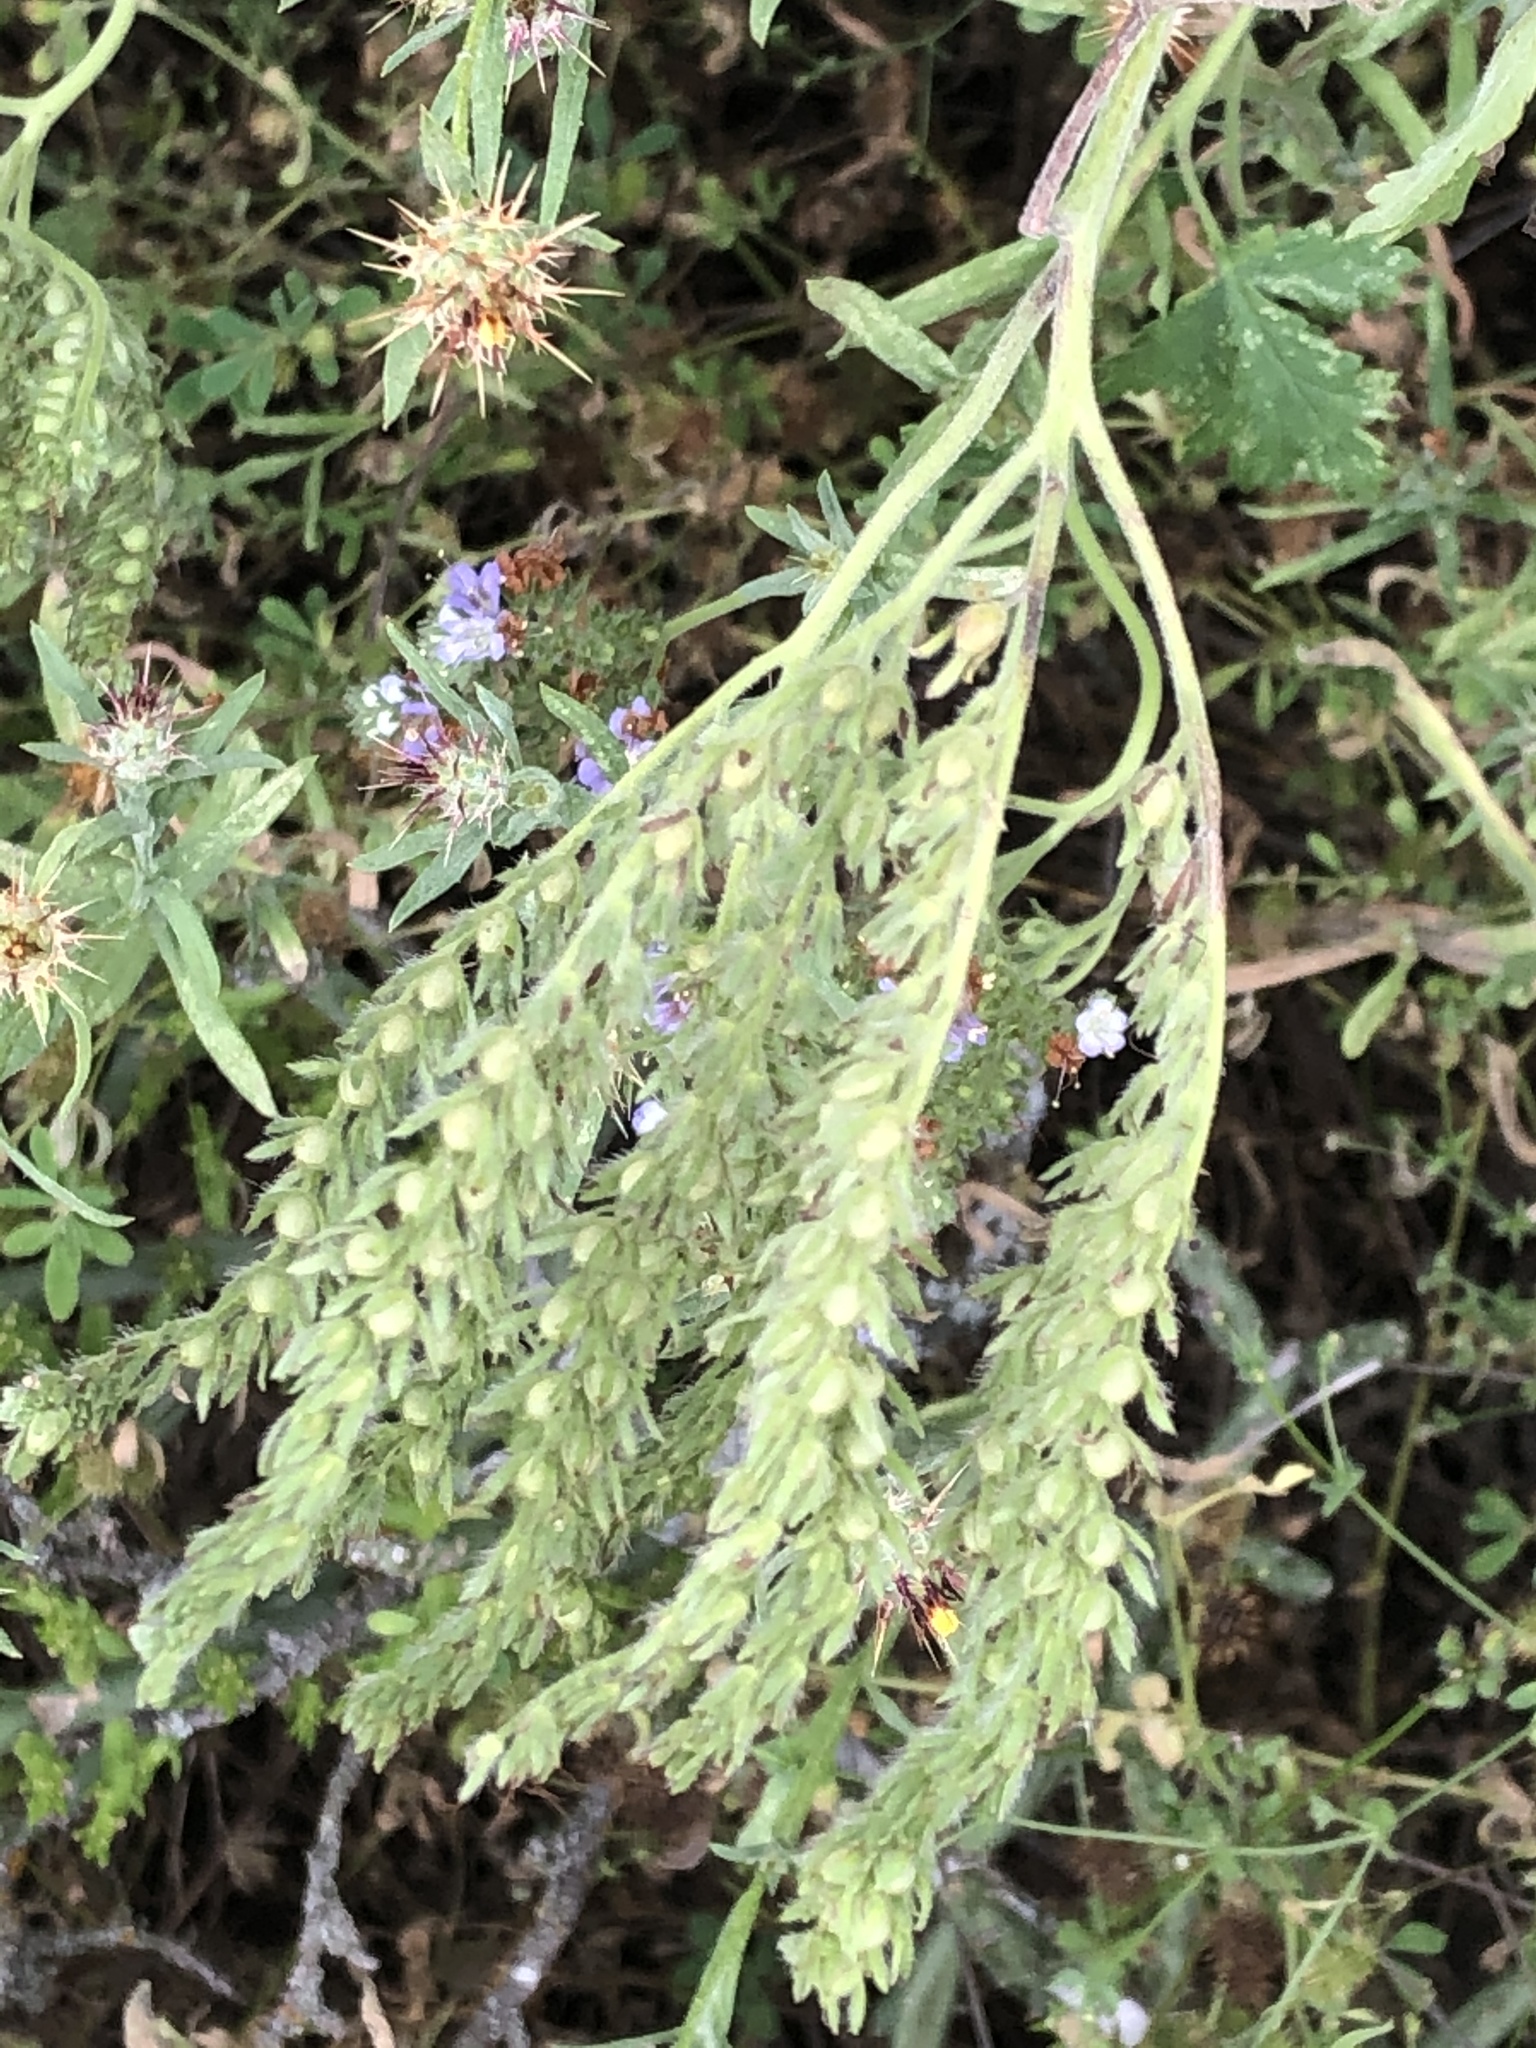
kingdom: Plantae
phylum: Tracheophyta
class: Magnoliopsida
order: Boraginales
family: Hydrophyllaceae
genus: Phacelia
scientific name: Phacelia congesta
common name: Blue curls
